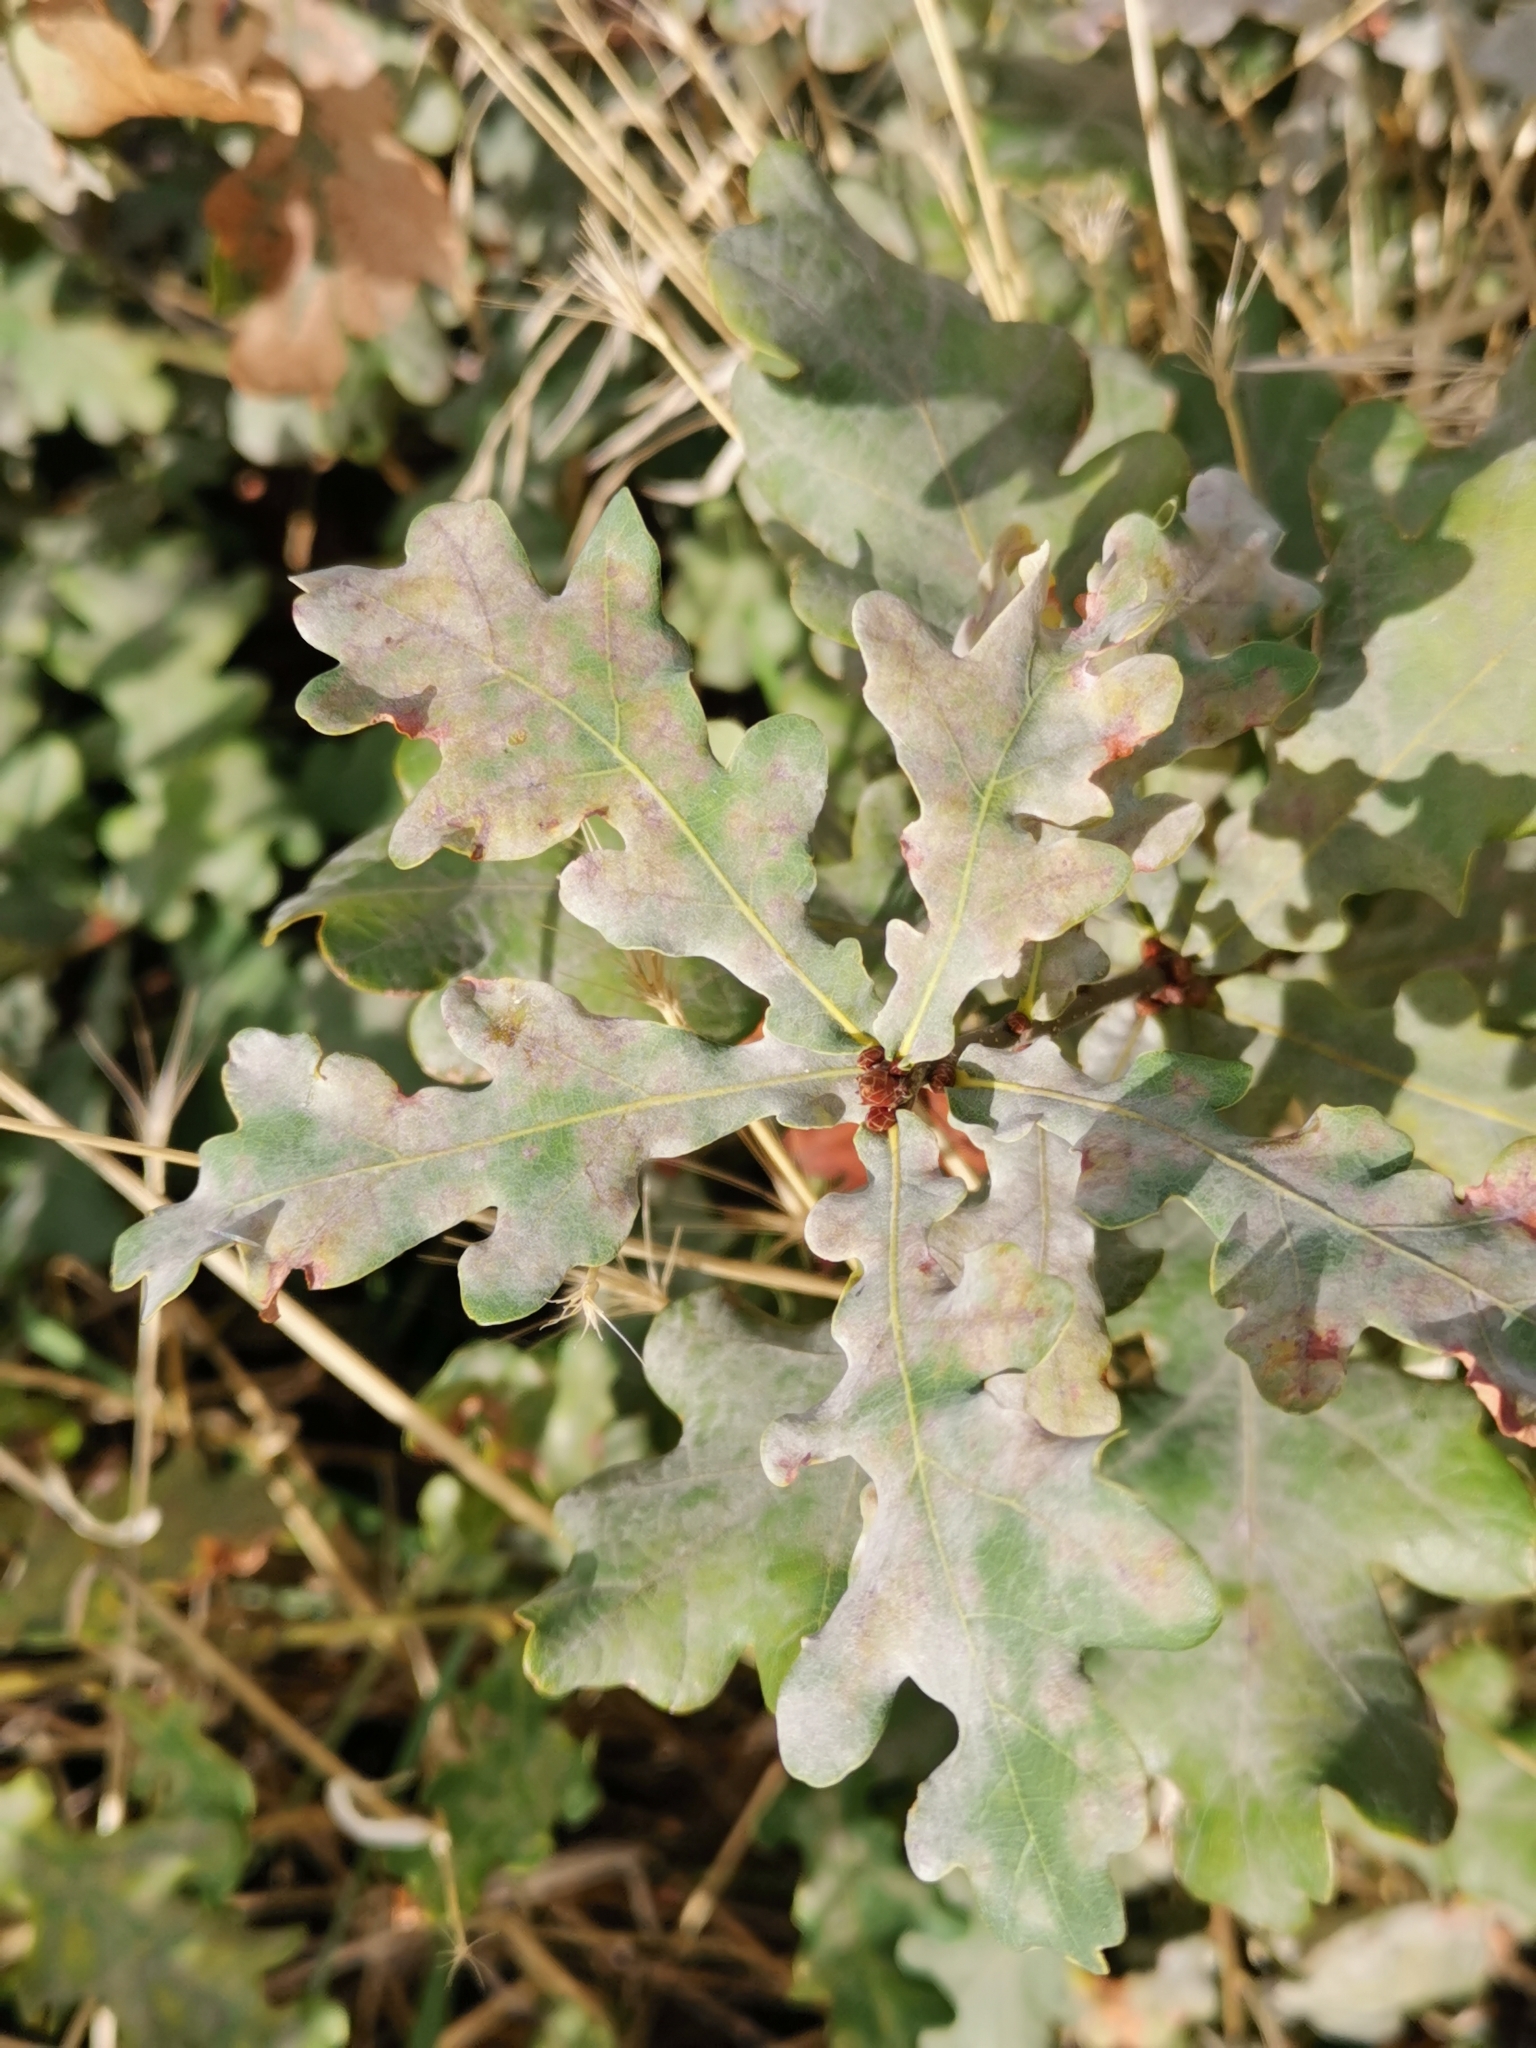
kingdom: Fungi
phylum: Ascomycota
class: Leotiomycetes
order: Helotiales
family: Erysiphaceae
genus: Erysiphe
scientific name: Erysiphe
